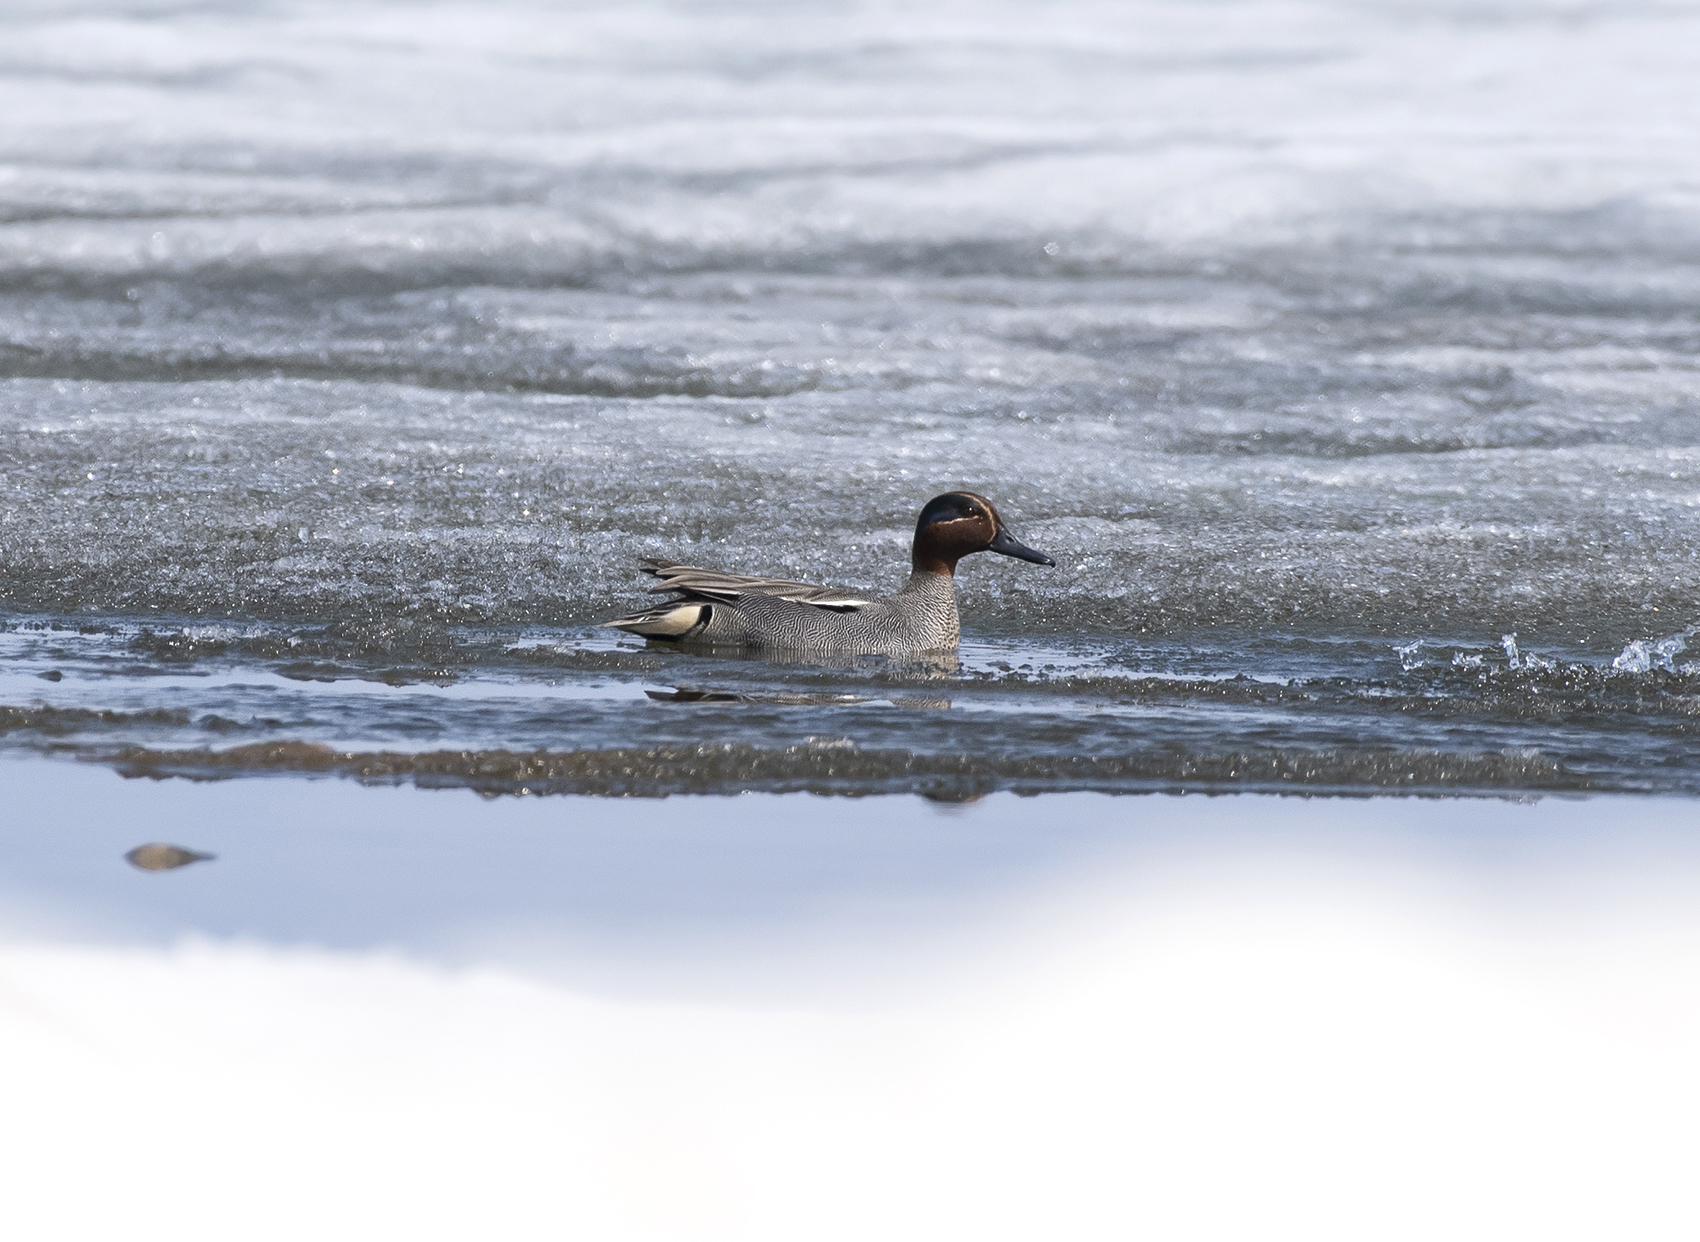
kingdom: Animalia
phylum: Chordata
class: Aves
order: Anseriformes
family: Anatidae
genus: Anas
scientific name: Anas crecca
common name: Eurasian teal
